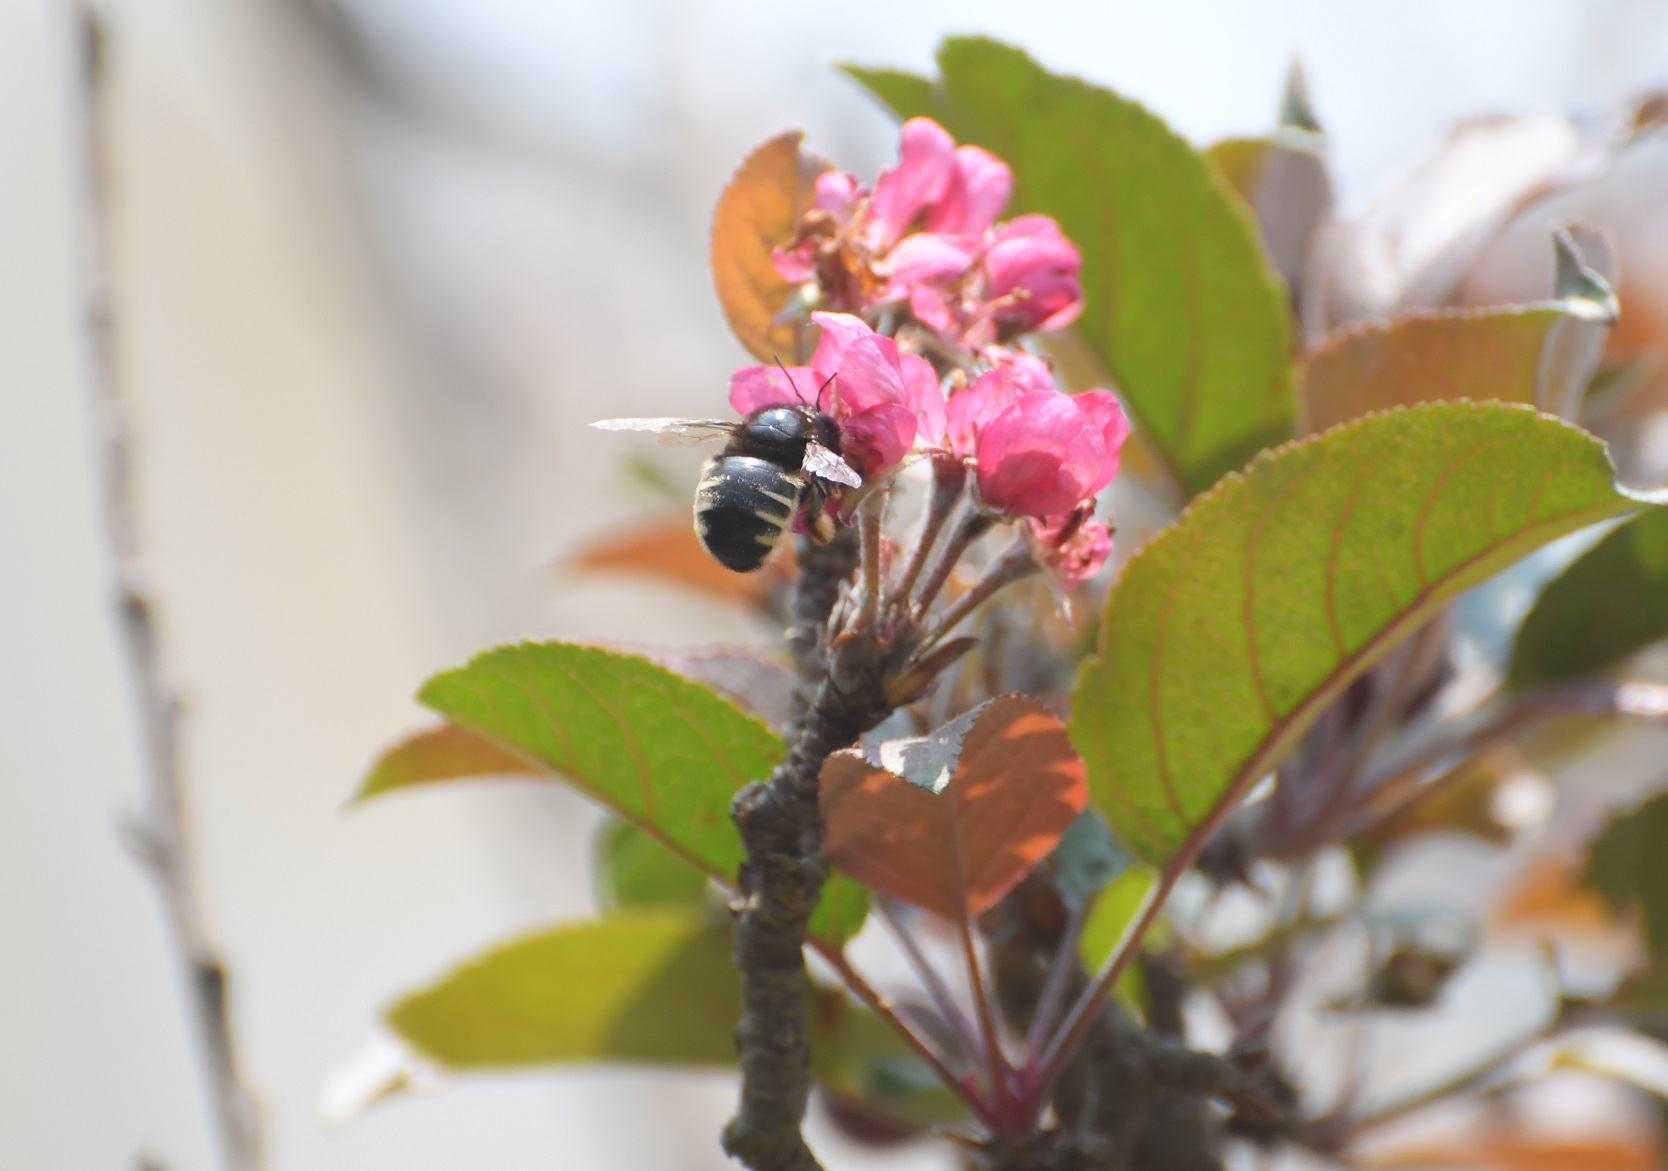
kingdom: Animalia
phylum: Arthropoda
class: Insecta
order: Hymenoptera
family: Apidae
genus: Xylocopa
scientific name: Xylocopa tabaniformis
